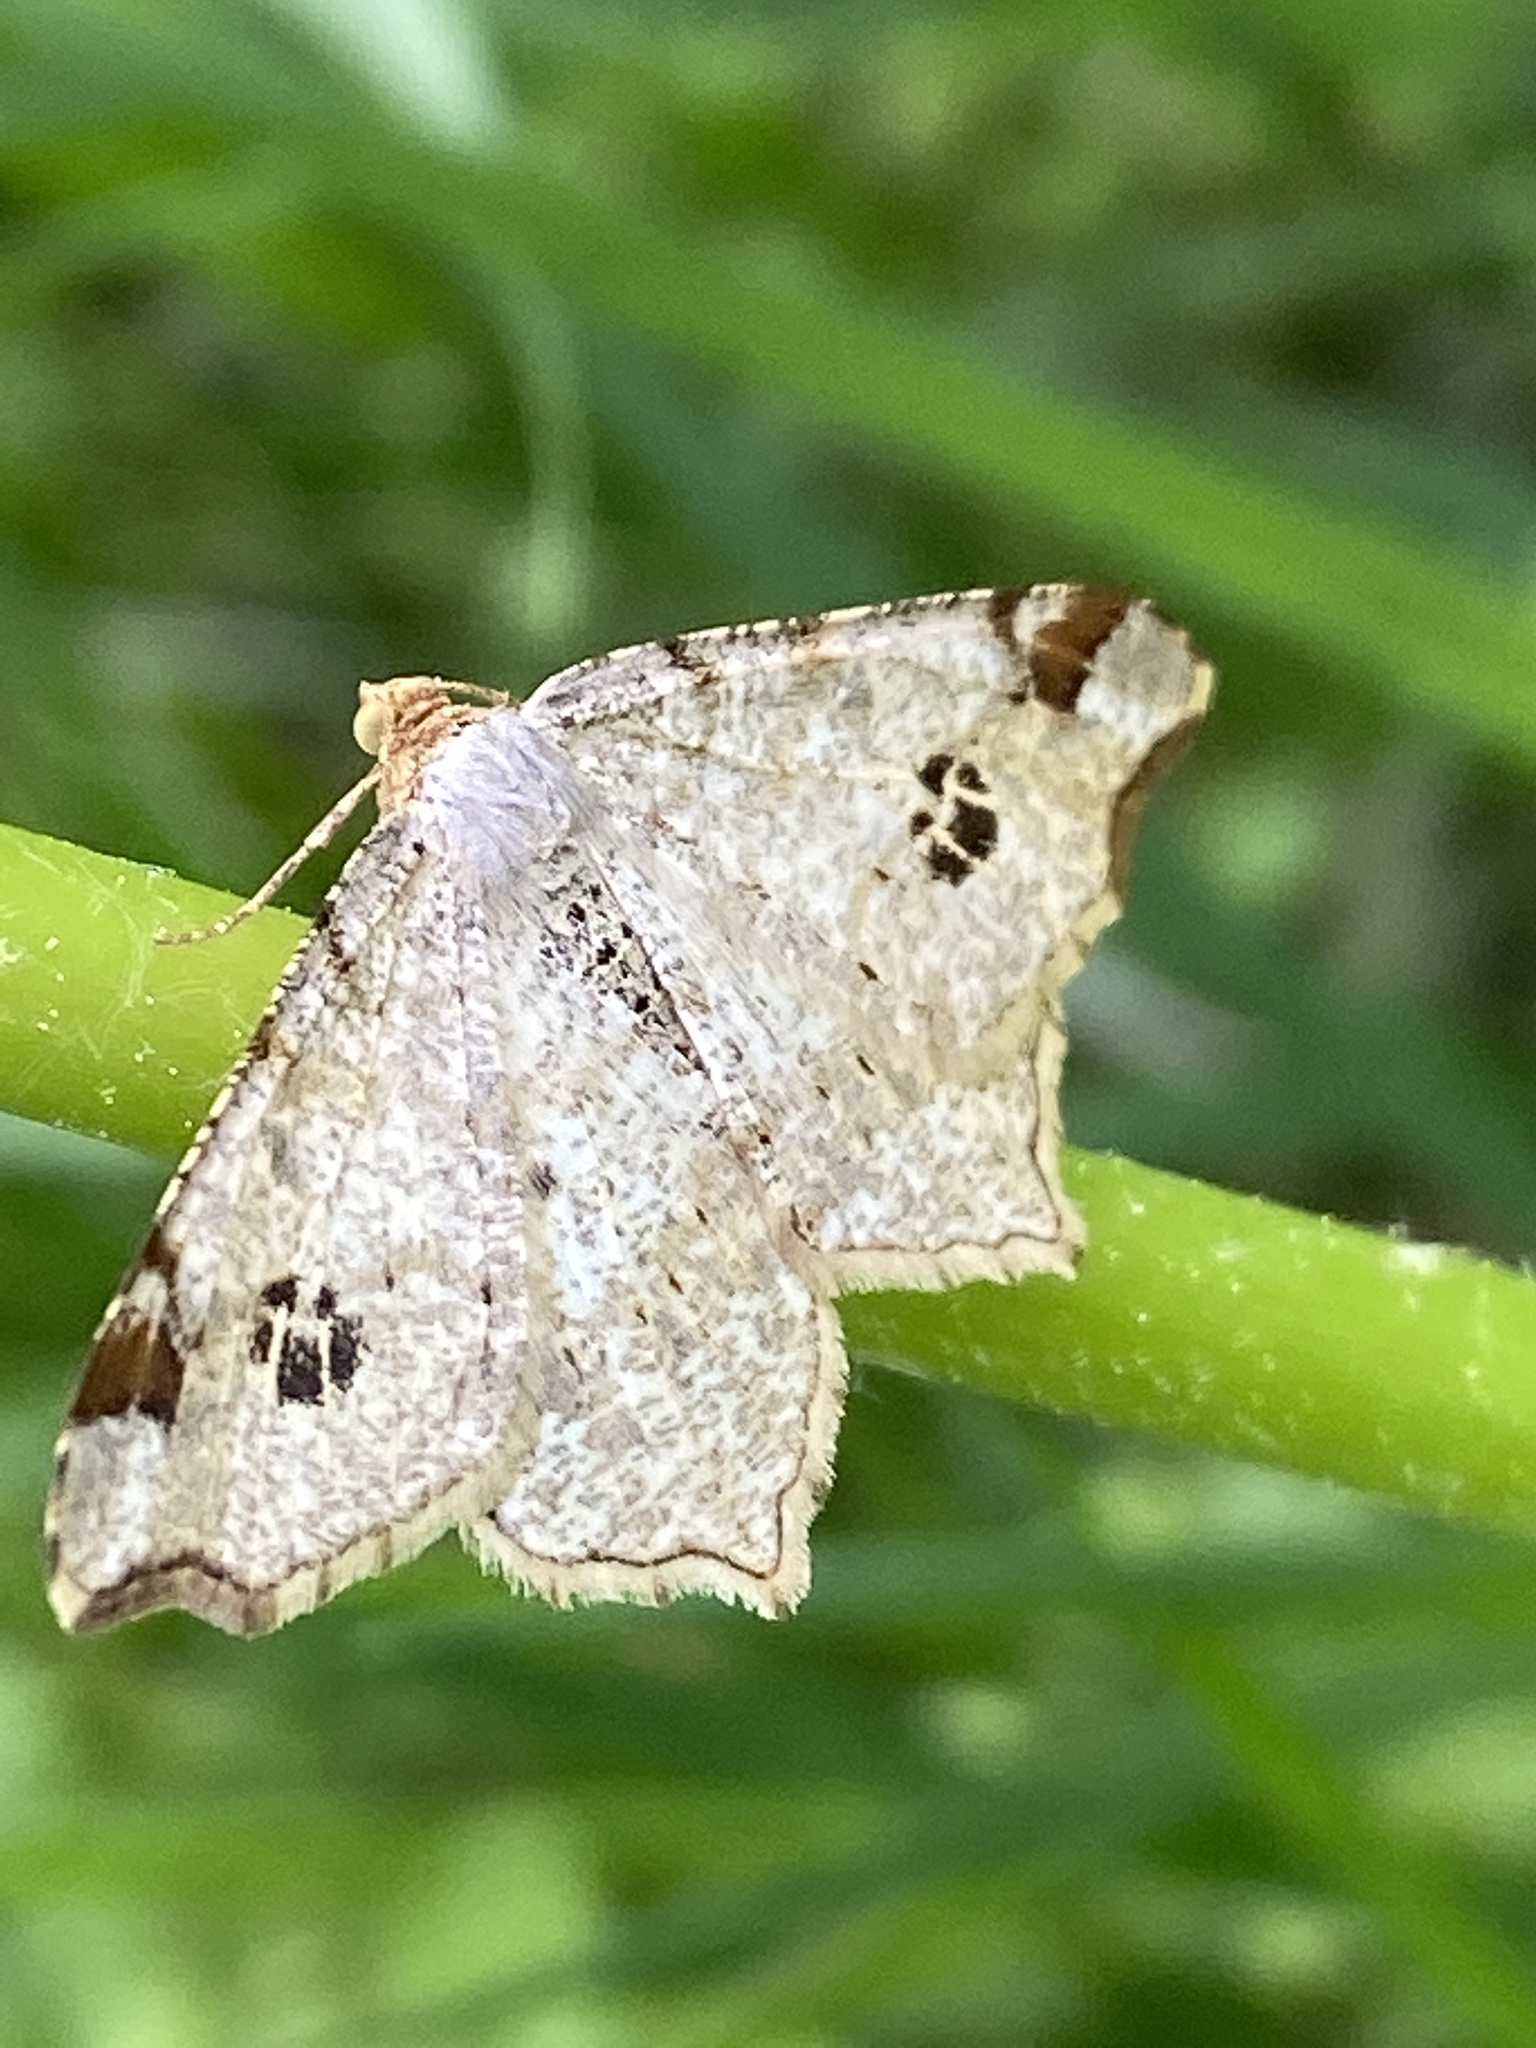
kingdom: Animalia
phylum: Arthropoda
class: Insecta
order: Lepidoptera
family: Geometridae
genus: Macaria
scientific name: Macaria notata
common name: Peacock moth
